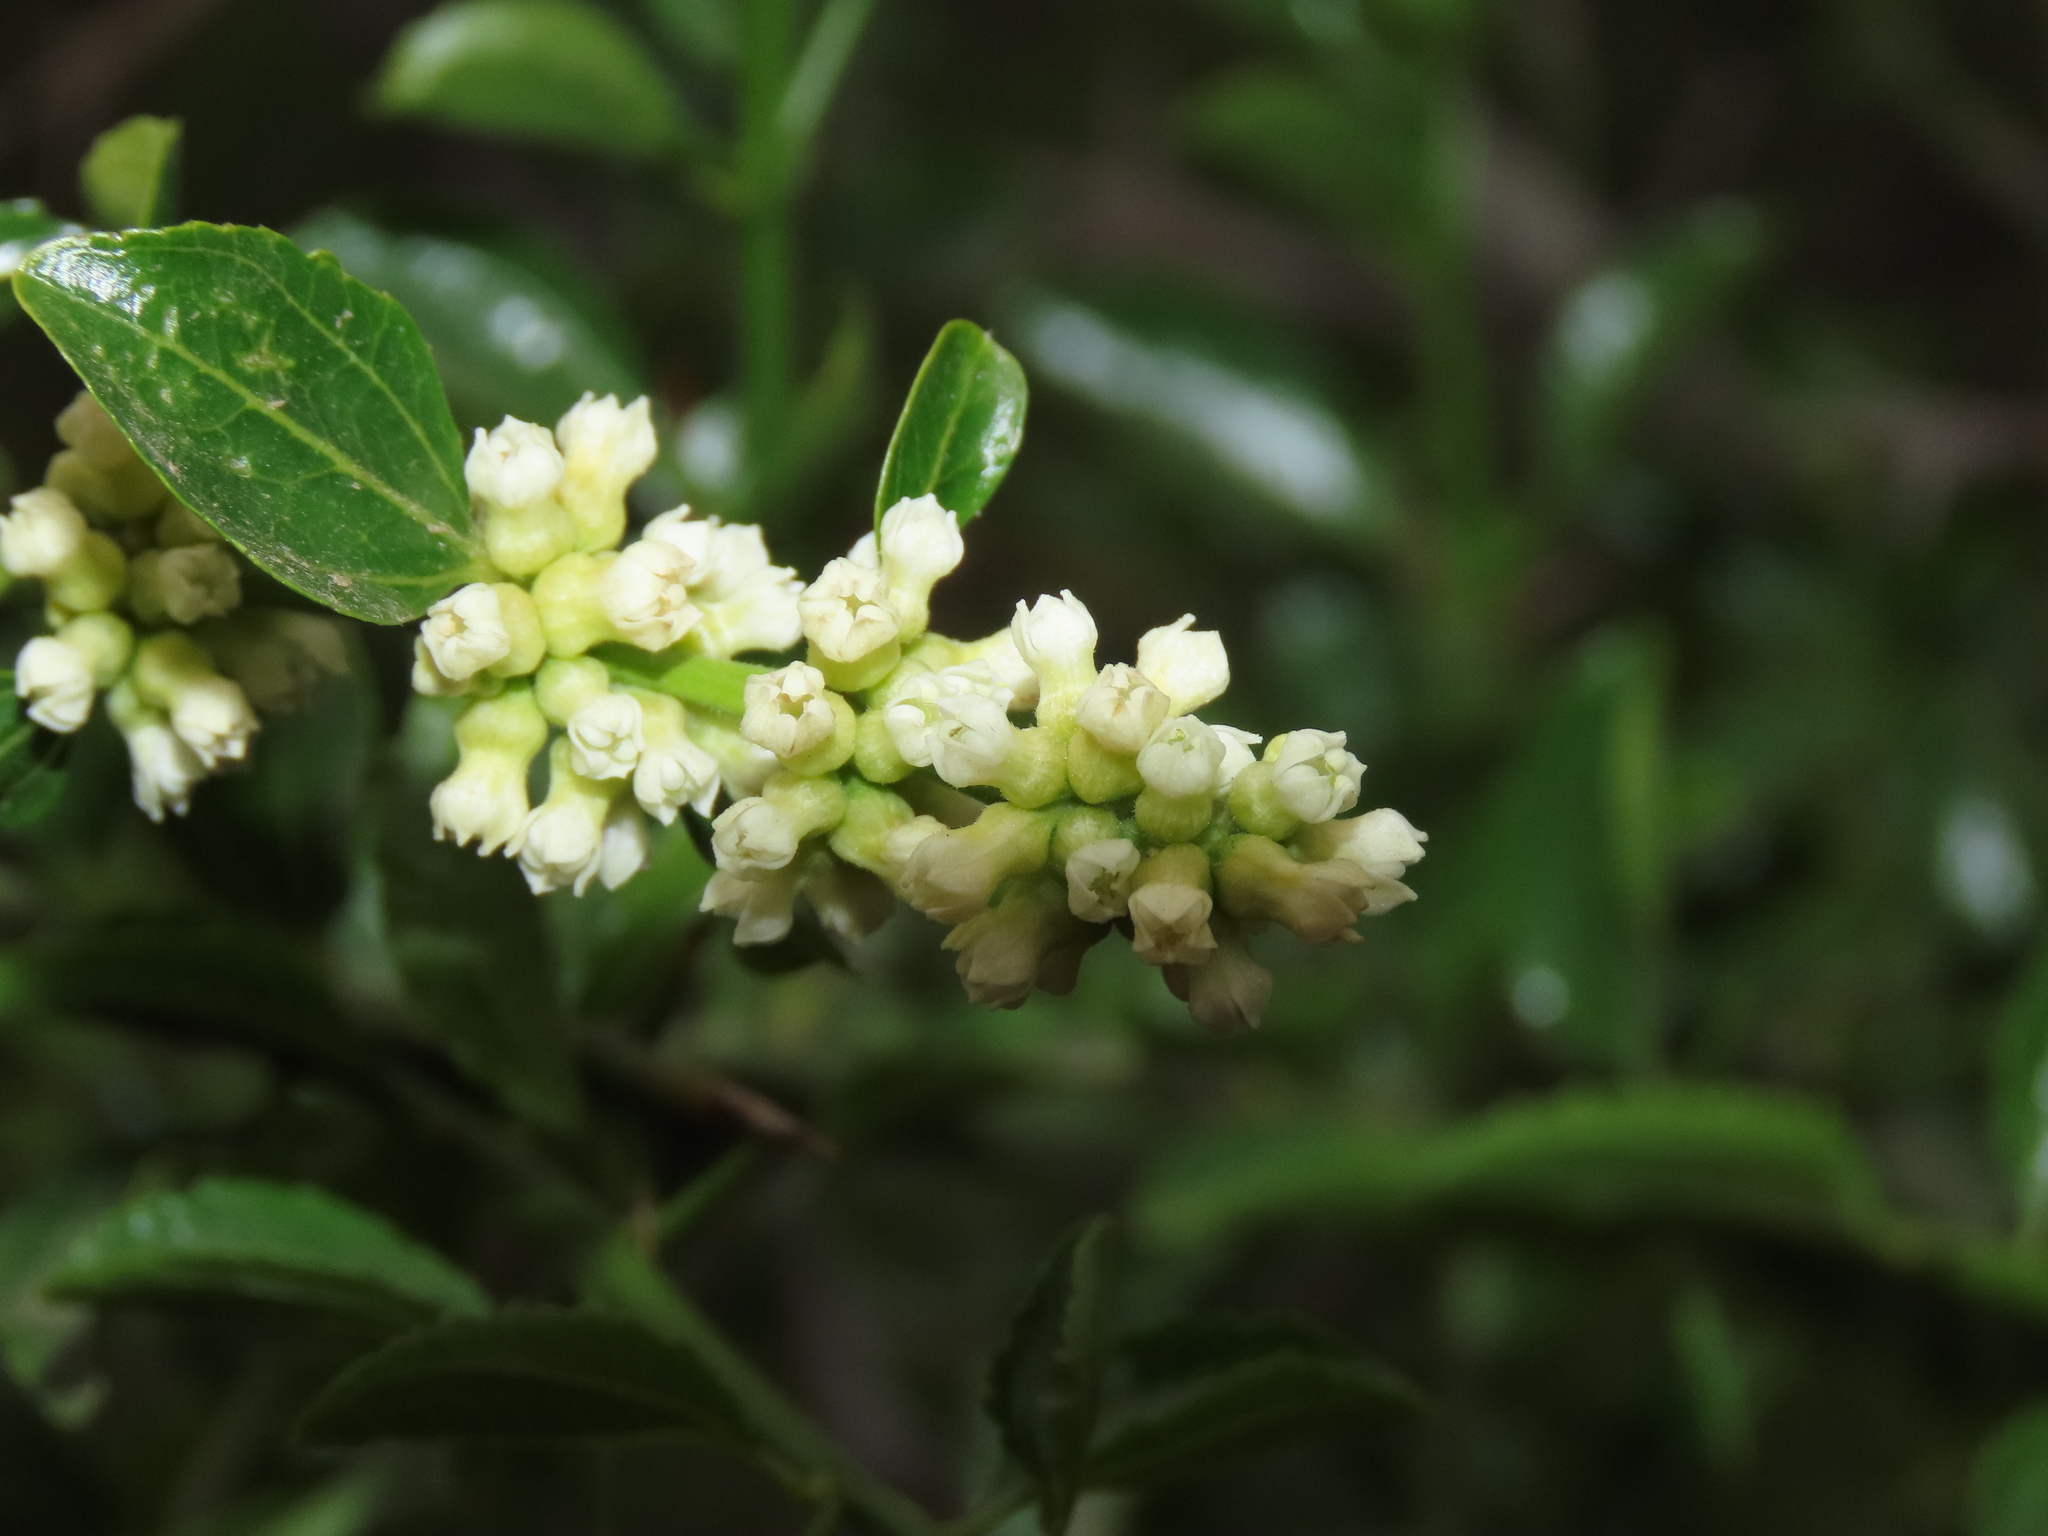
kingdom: Plantae
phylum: Tracheophyta
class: Magnoliopsida
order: Rosales
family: Rhamnaceae
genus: Retanilla
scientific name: Retanilla trinervia
